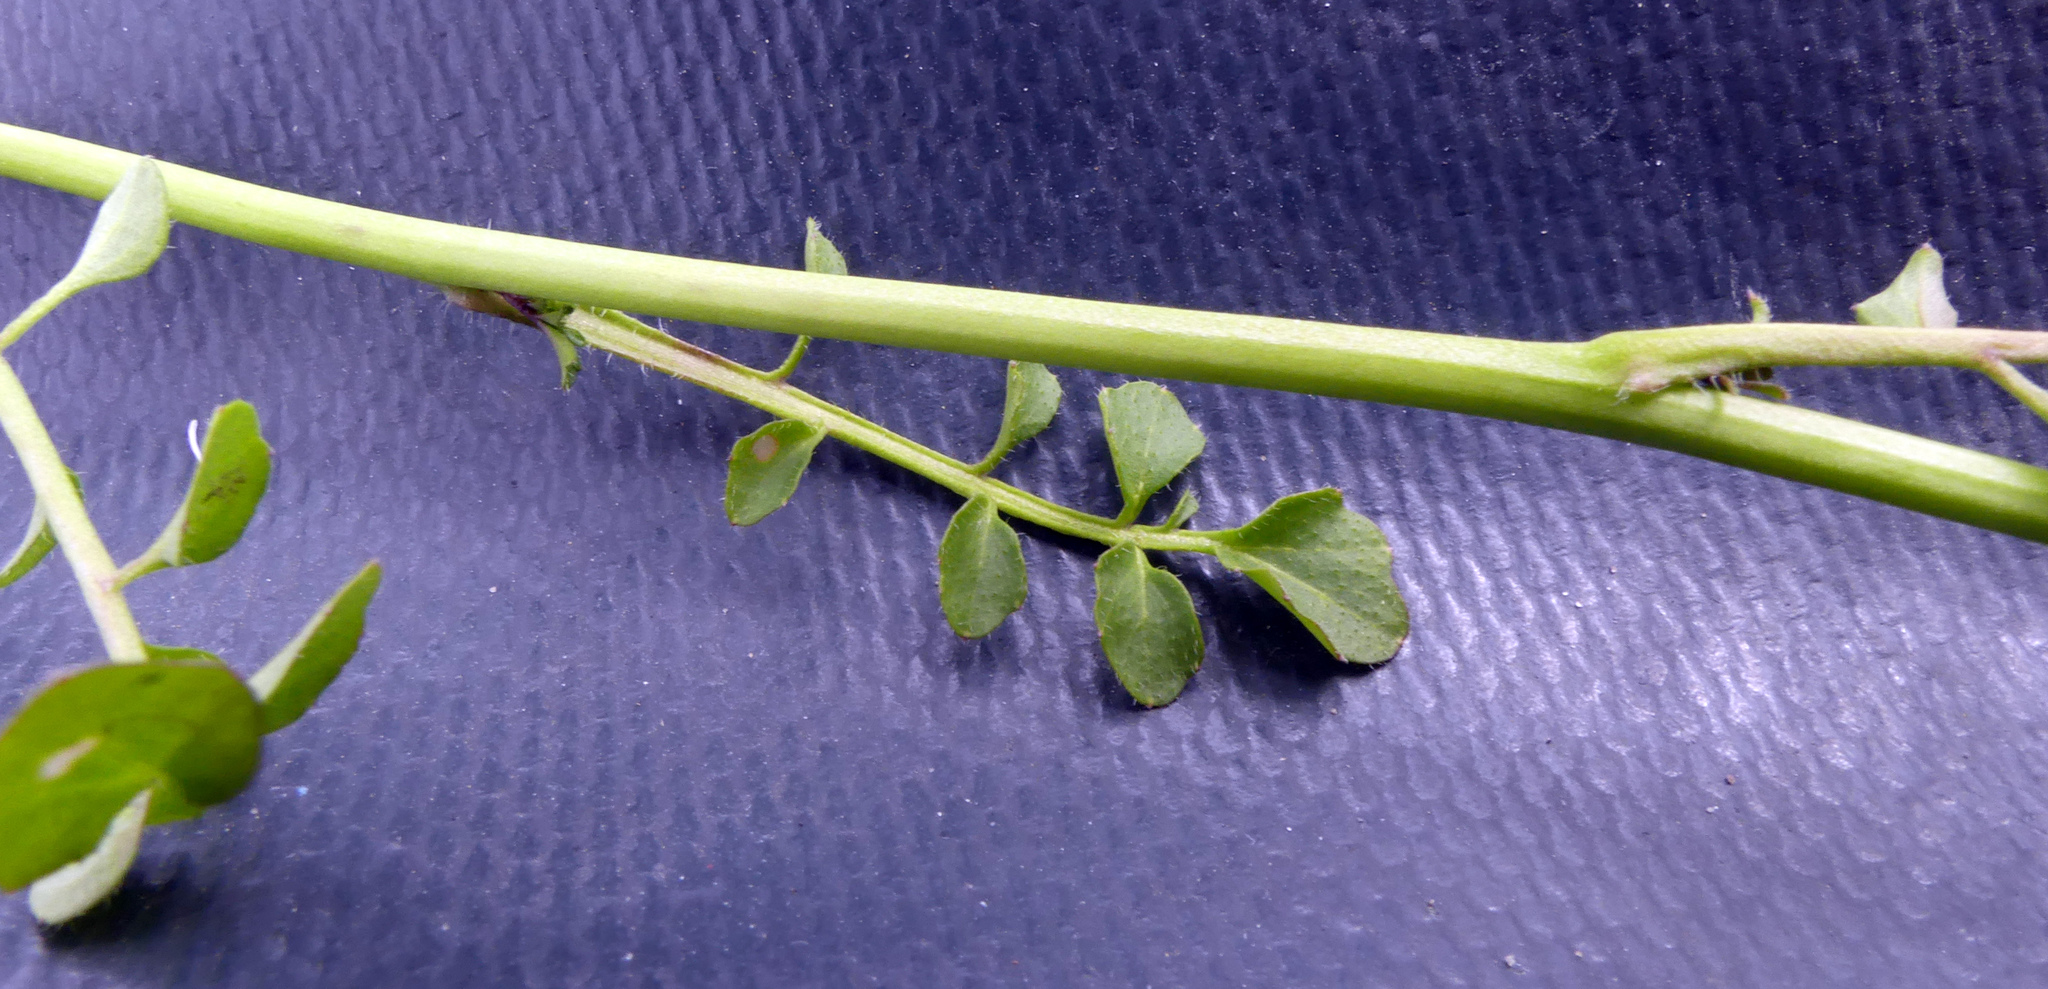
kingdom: Plantae
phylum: Tracheophyta
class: Magnoliopsida
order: Brassicales
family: Brassicaceae
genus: Cardamine
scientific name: Cardamine hirsuta
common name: Hairy bittercress
